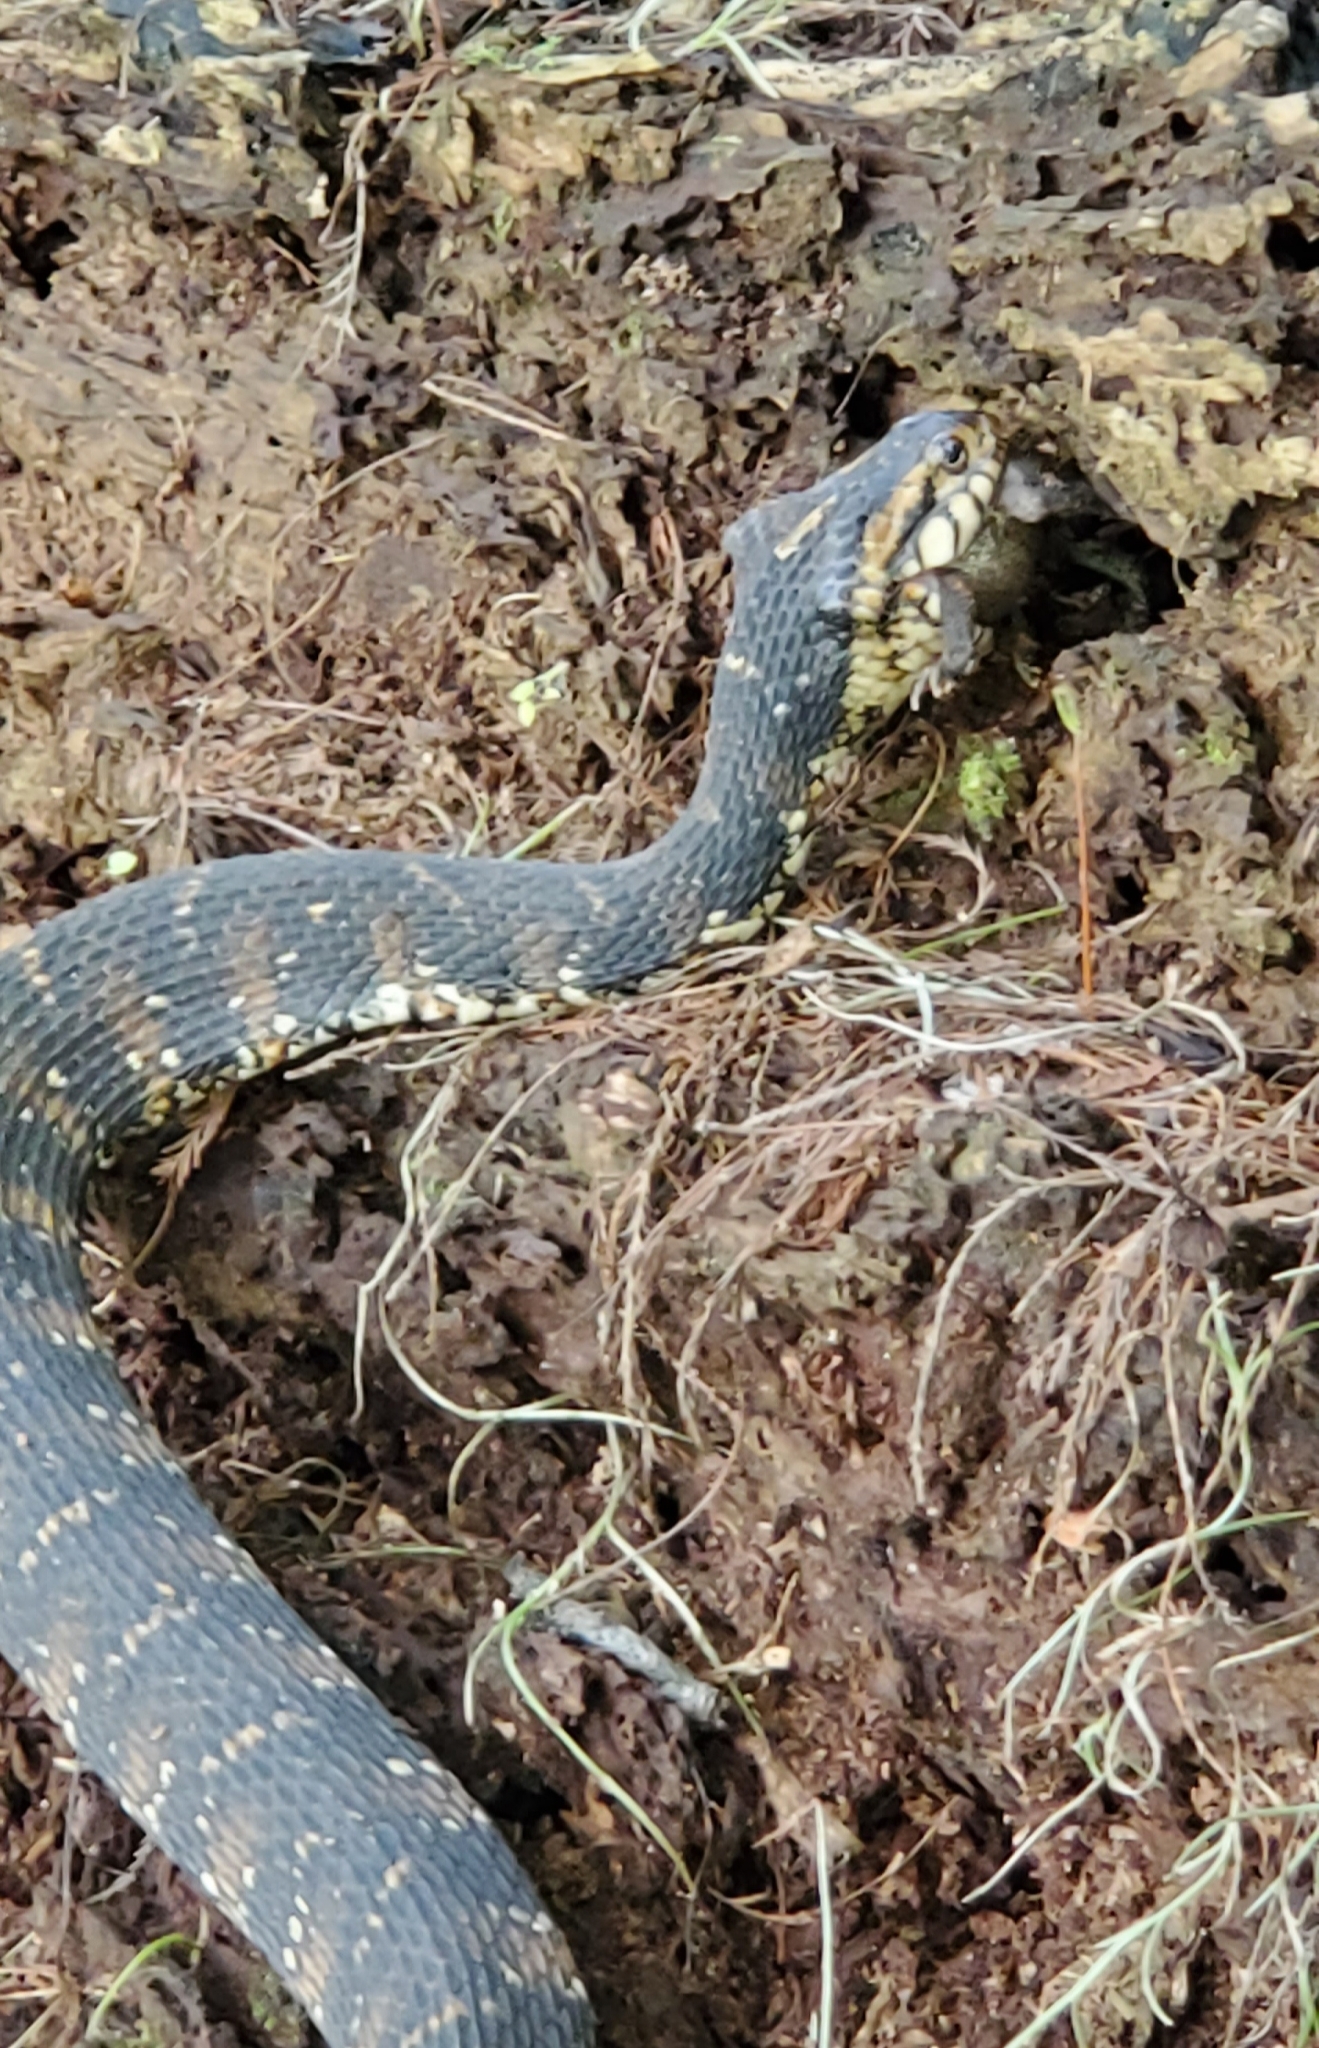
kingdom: Animalia
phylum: Chordata
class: Squamata
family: Colubridae
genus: Nerodia
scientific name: Nerodia fasciata
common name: Southern water snake
